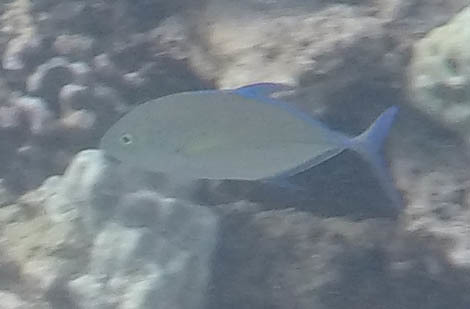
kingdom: Animalia
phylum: Chordata
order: Perciformes
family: Carangidae
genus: Caranx
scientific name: Caranx melampygus
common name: Bluefin trevally
